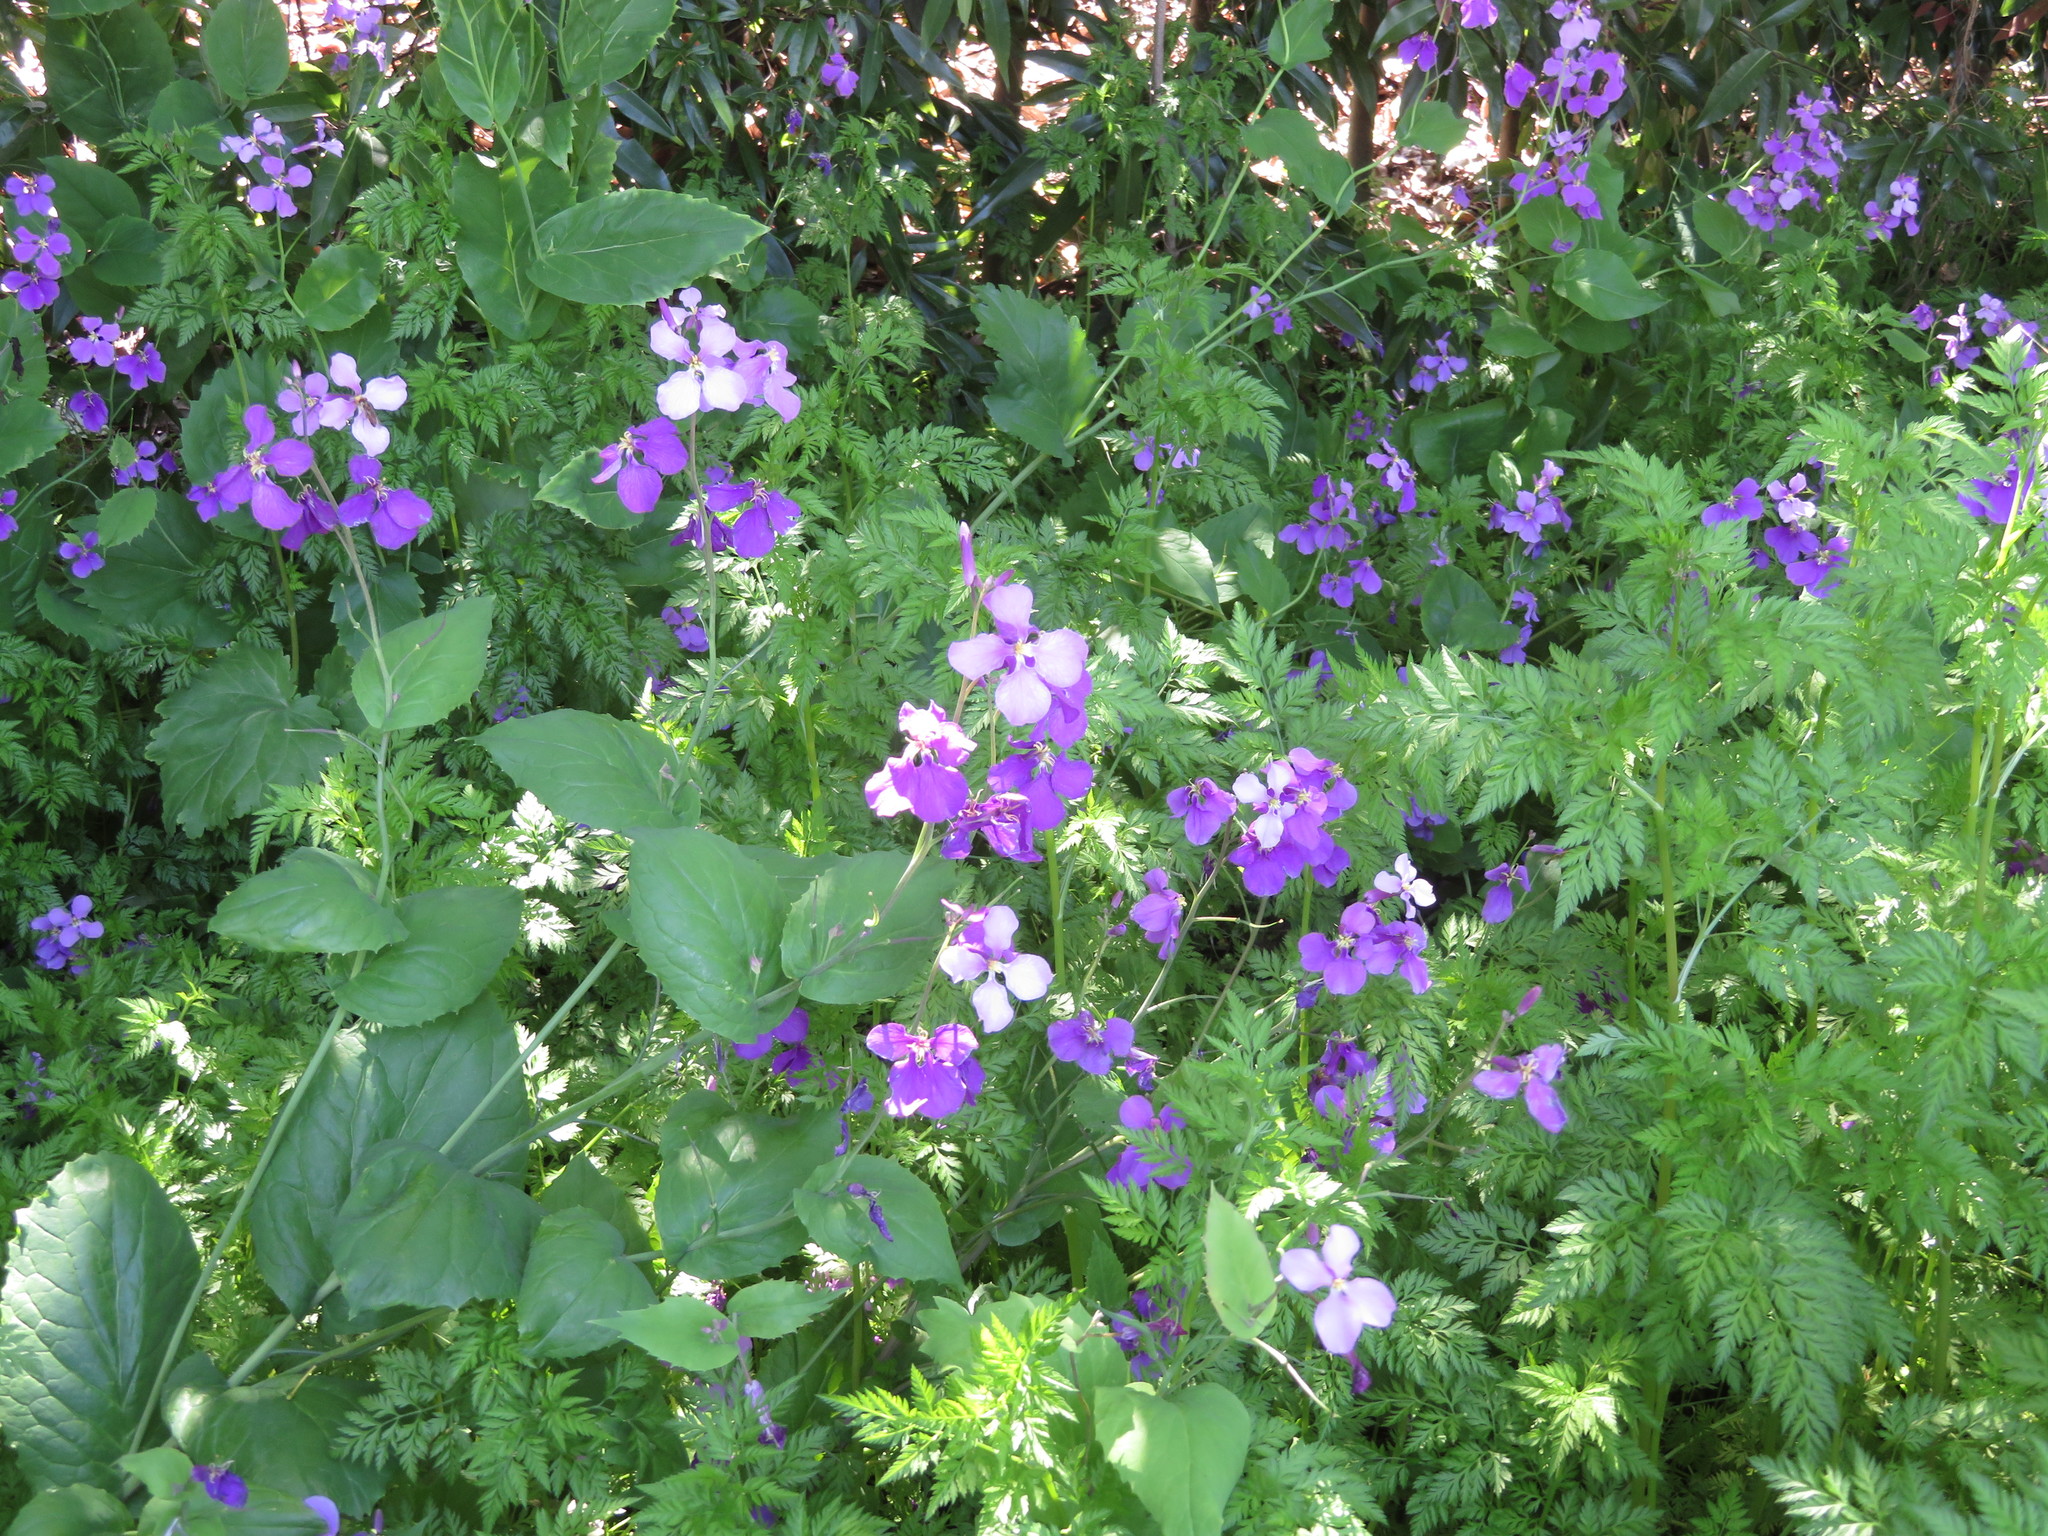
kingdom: Plantae
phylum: Tracheophyta
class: Magnoliopsida
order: Brassicales
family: Brassicaceae
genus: Orychophragmus
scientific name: Orychophragmus violaceus
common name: Mustard
